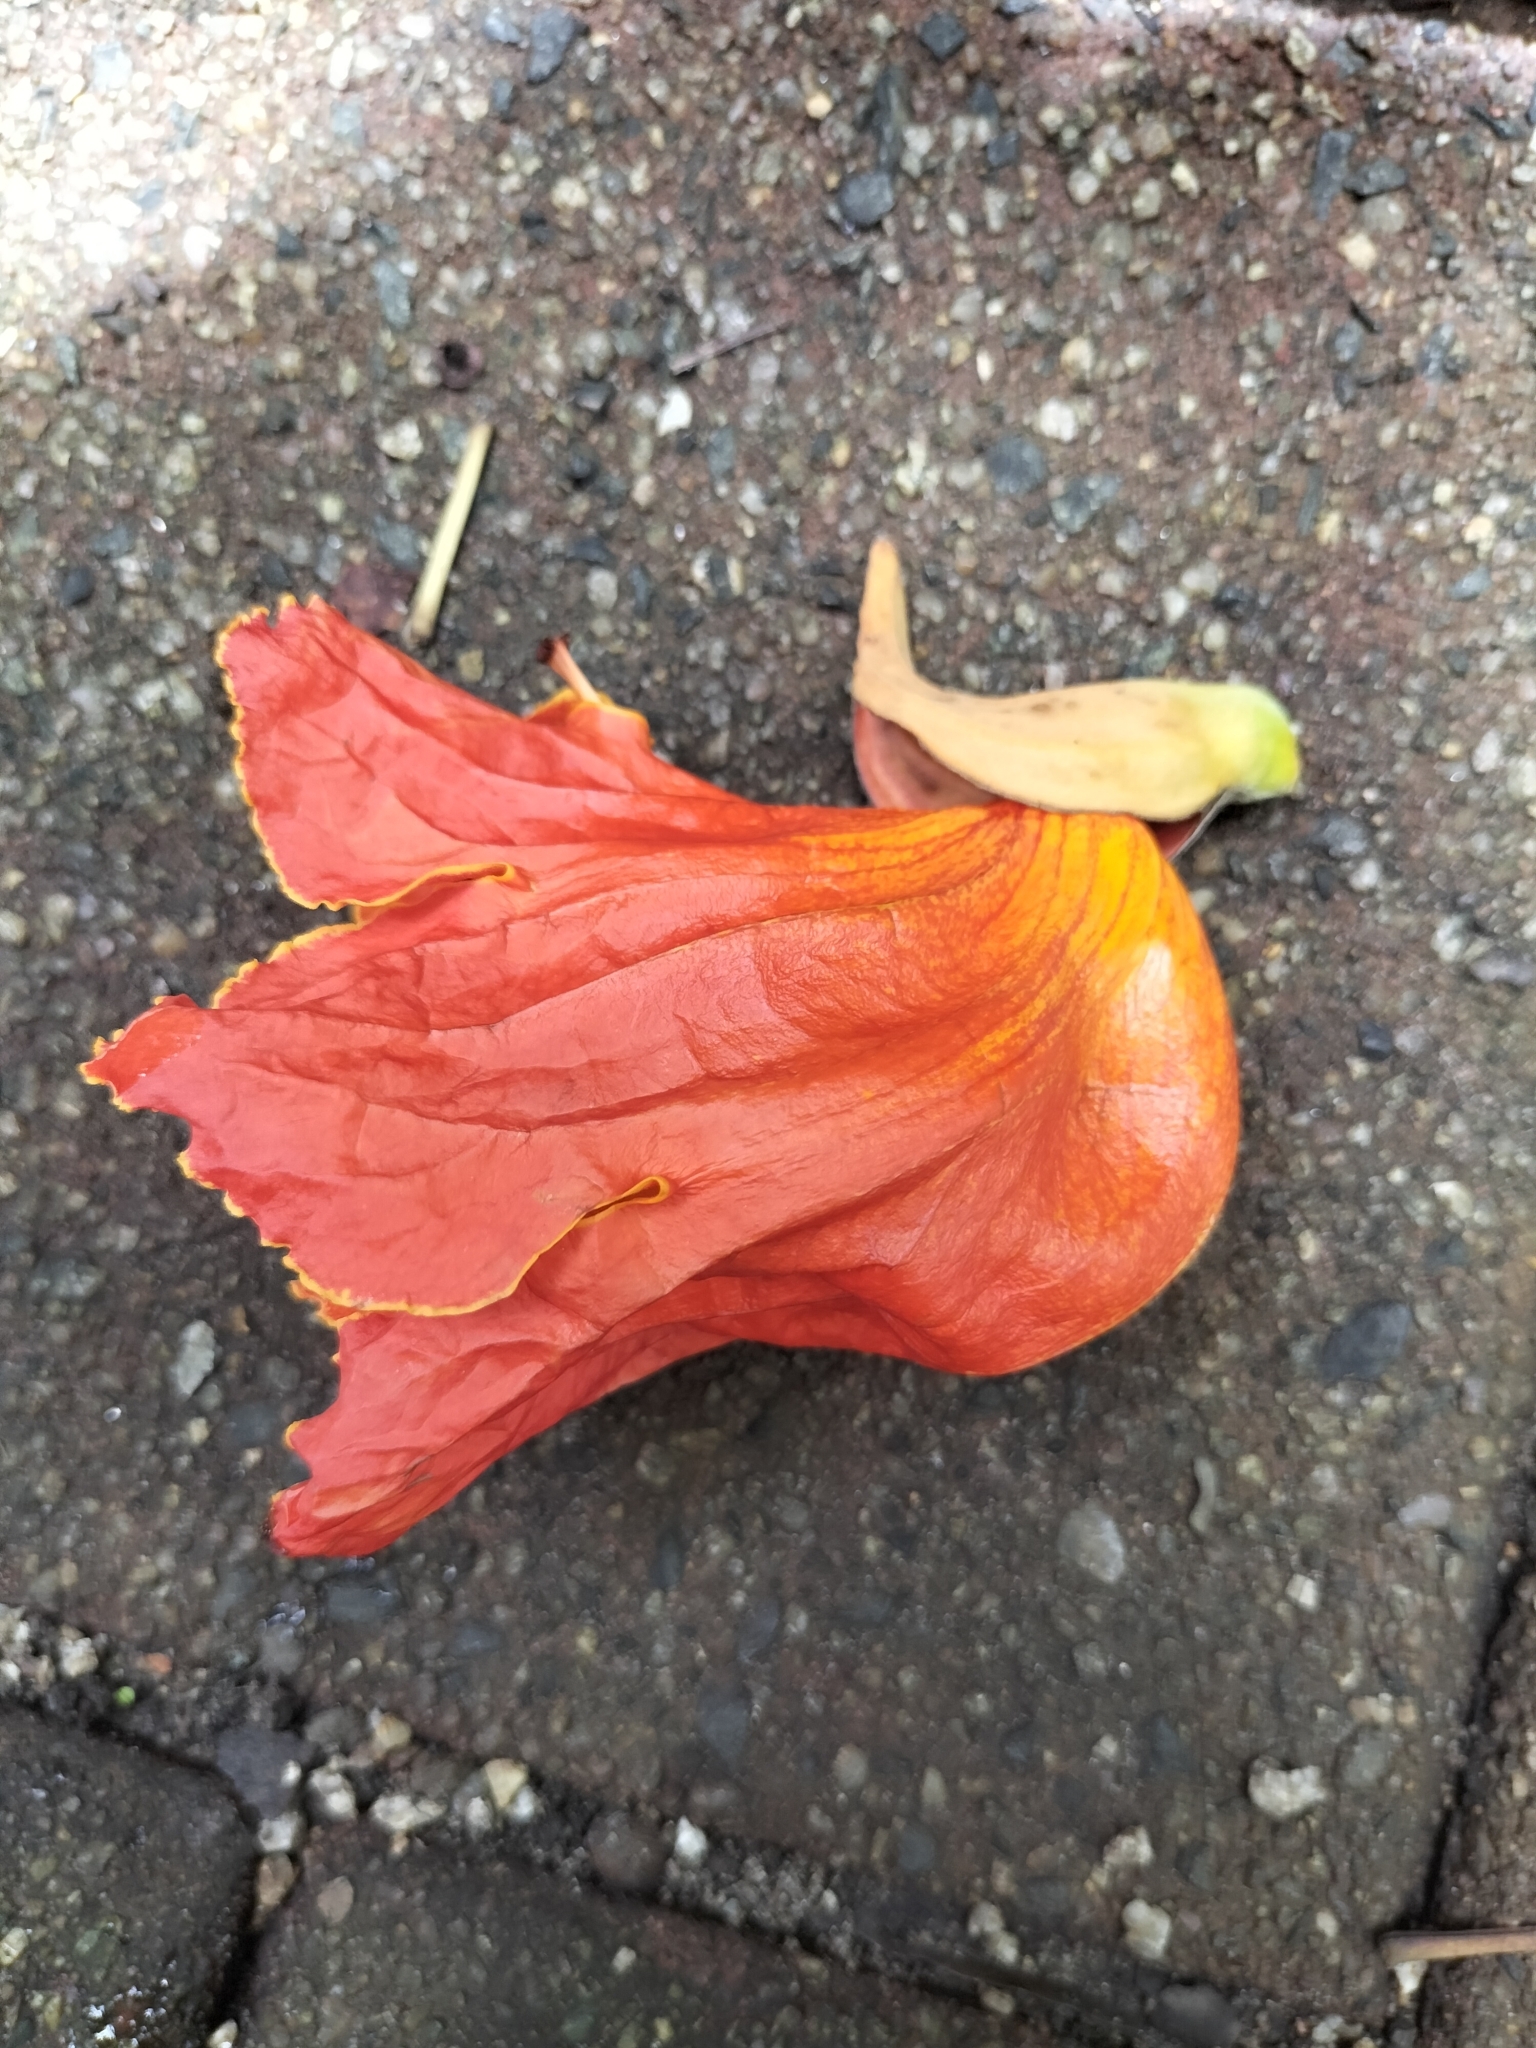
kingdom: Plantae
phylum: Tracheophyta
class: Magnoliopsida
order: Lamiales
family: Bignoniaceae
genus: Spathodea
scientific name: Spathodea campanulata
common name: African tuliptree
